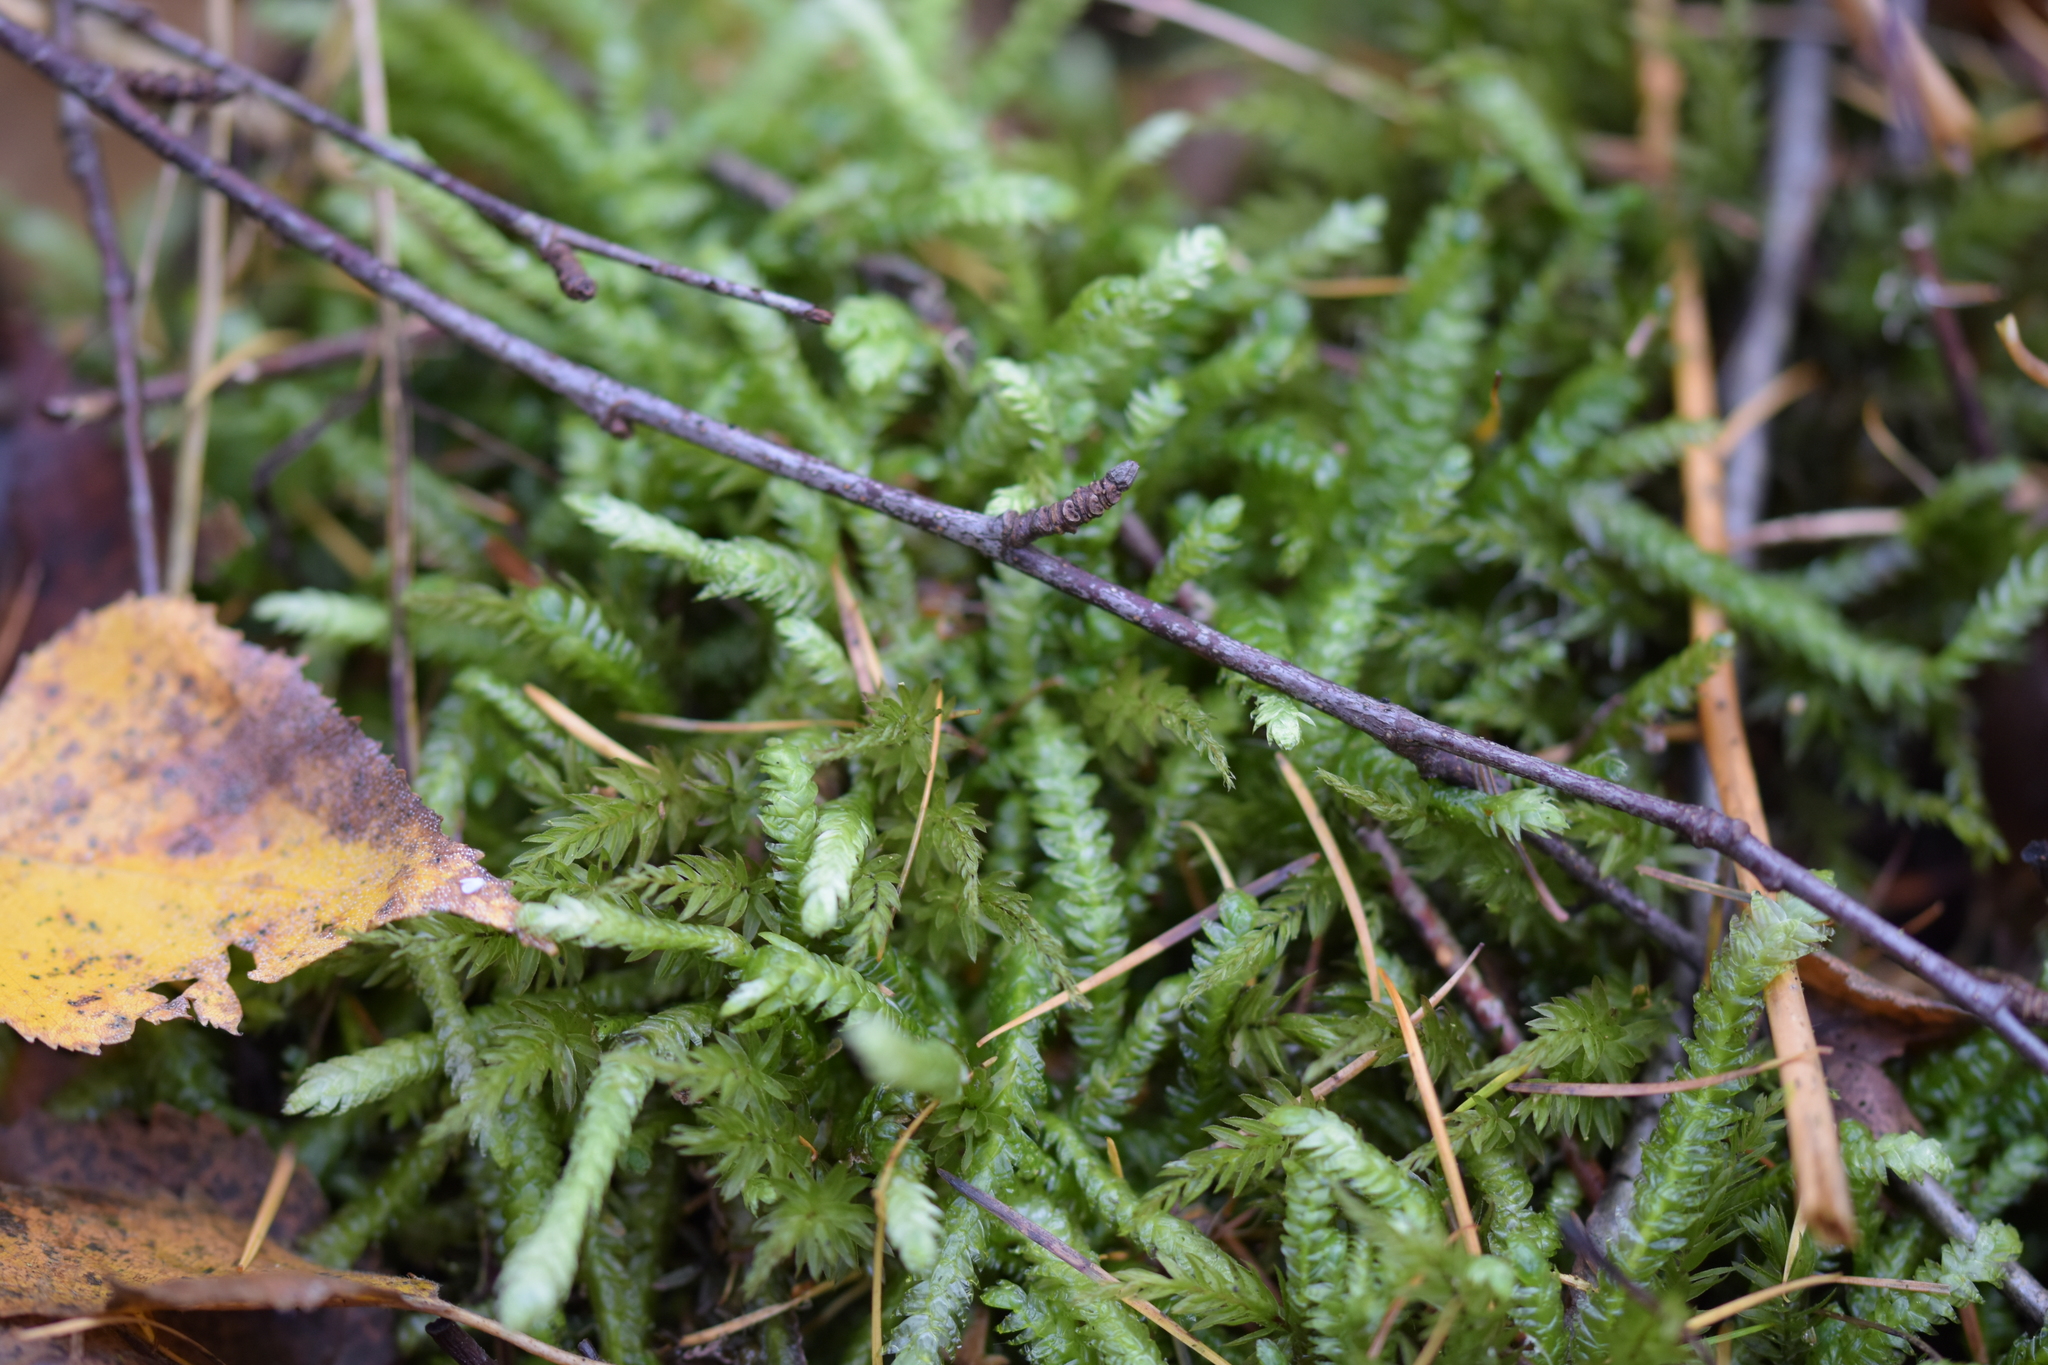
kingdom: Plantae
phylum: Bryophyta
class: Bryopsida
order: Hypnales
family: Plagiotheciaceae
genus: Plagiothecium
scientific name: Plagiothecium undulatum
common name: Waved silk-moss
